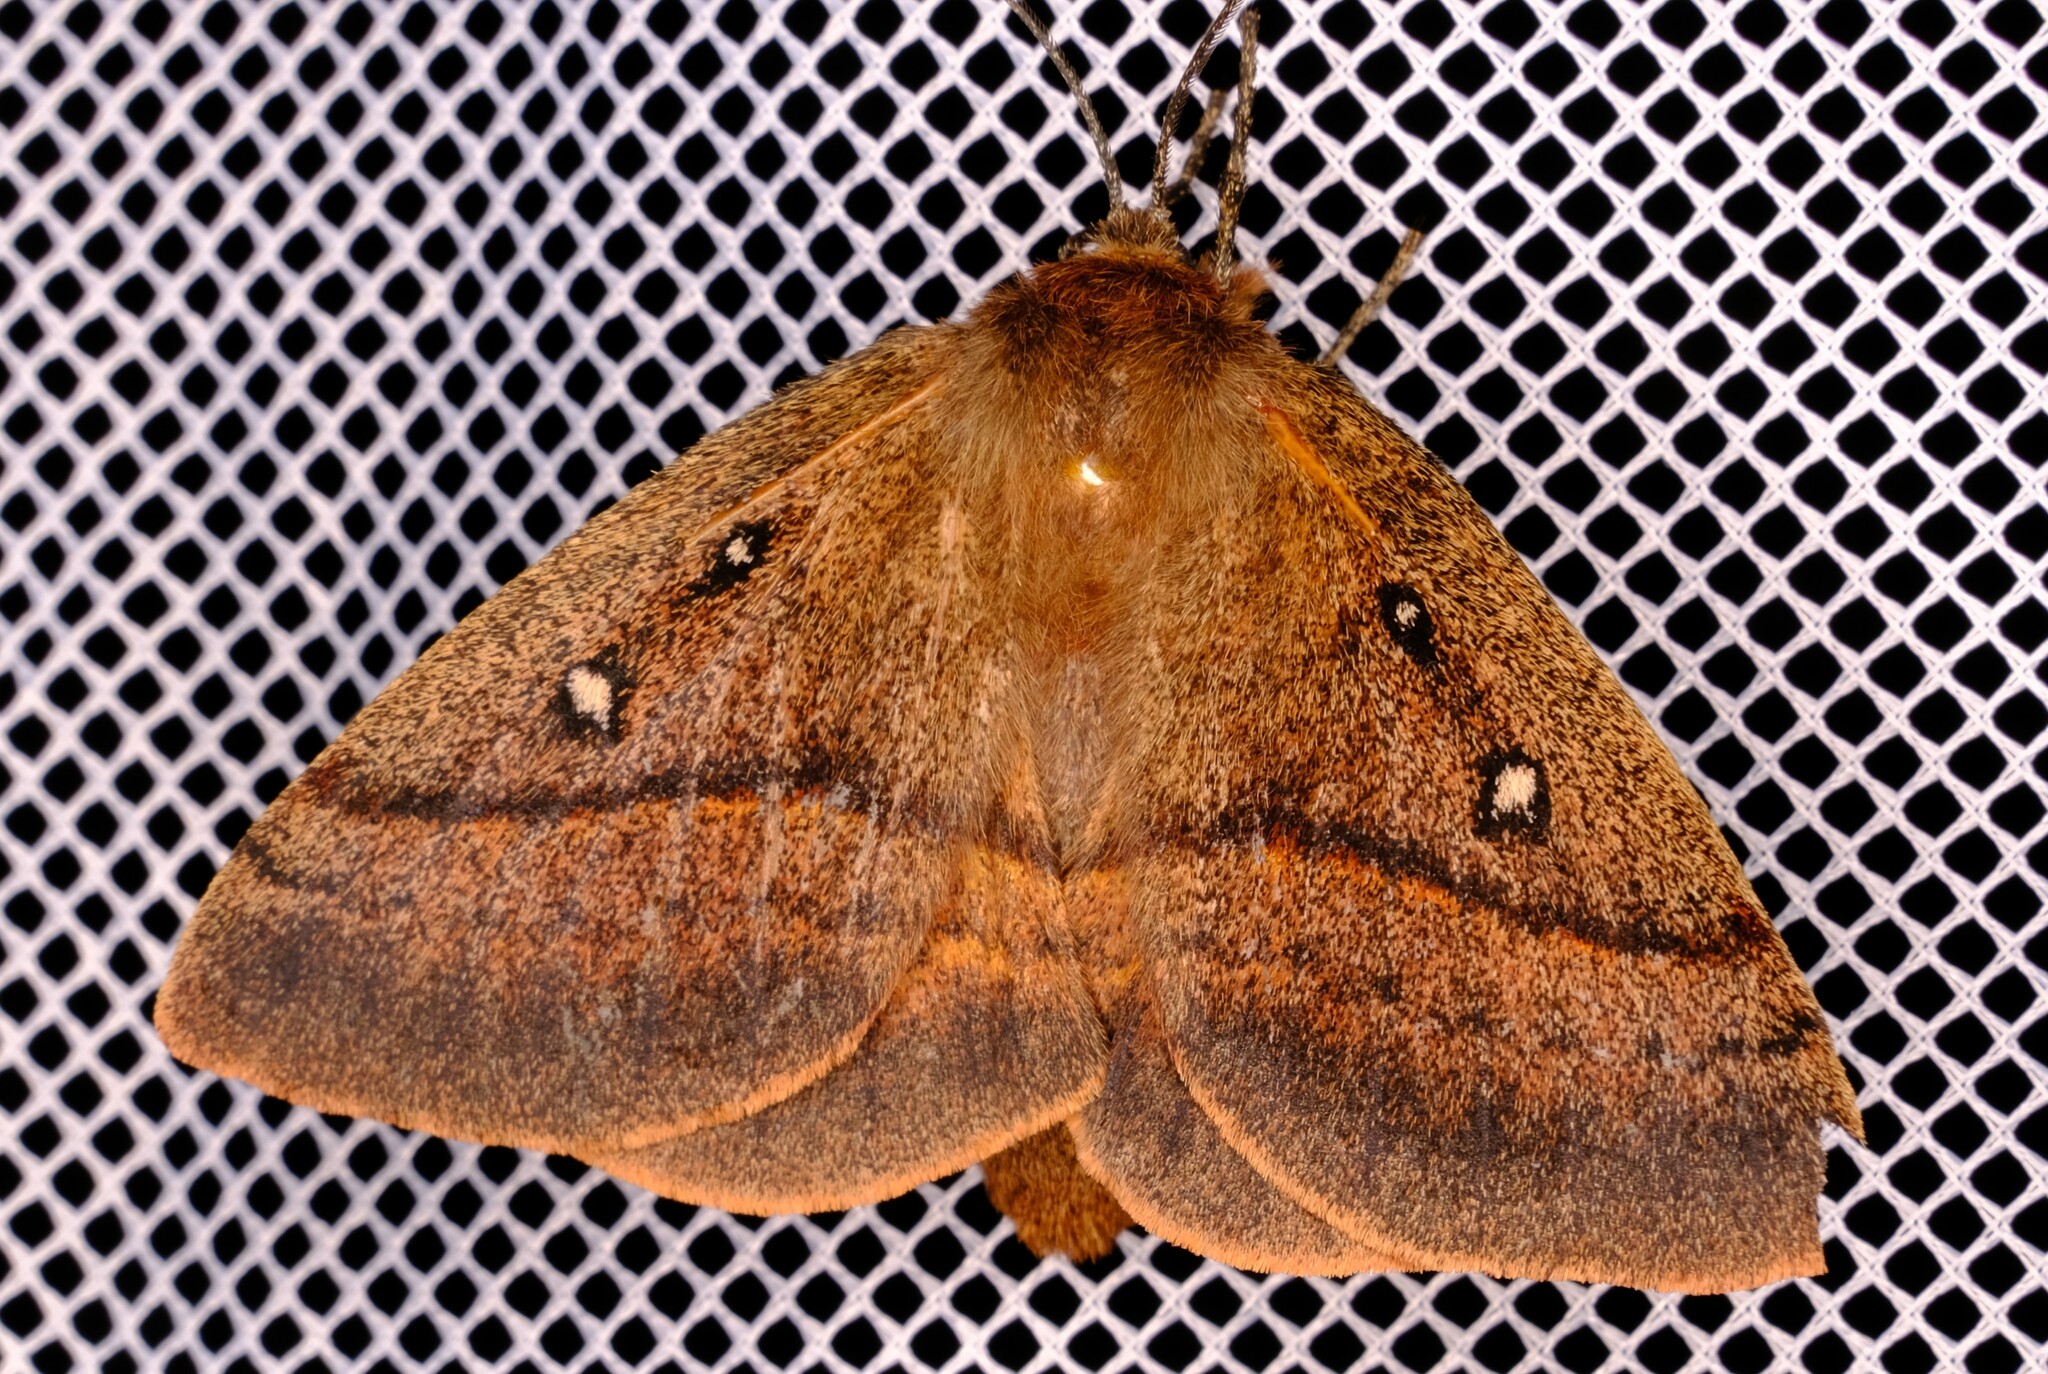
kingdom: Animalia
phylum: Arthropoda
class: Insecta
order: Lepidoptera
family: Anthelidae
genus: Anthela
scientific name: Anthela connexa
